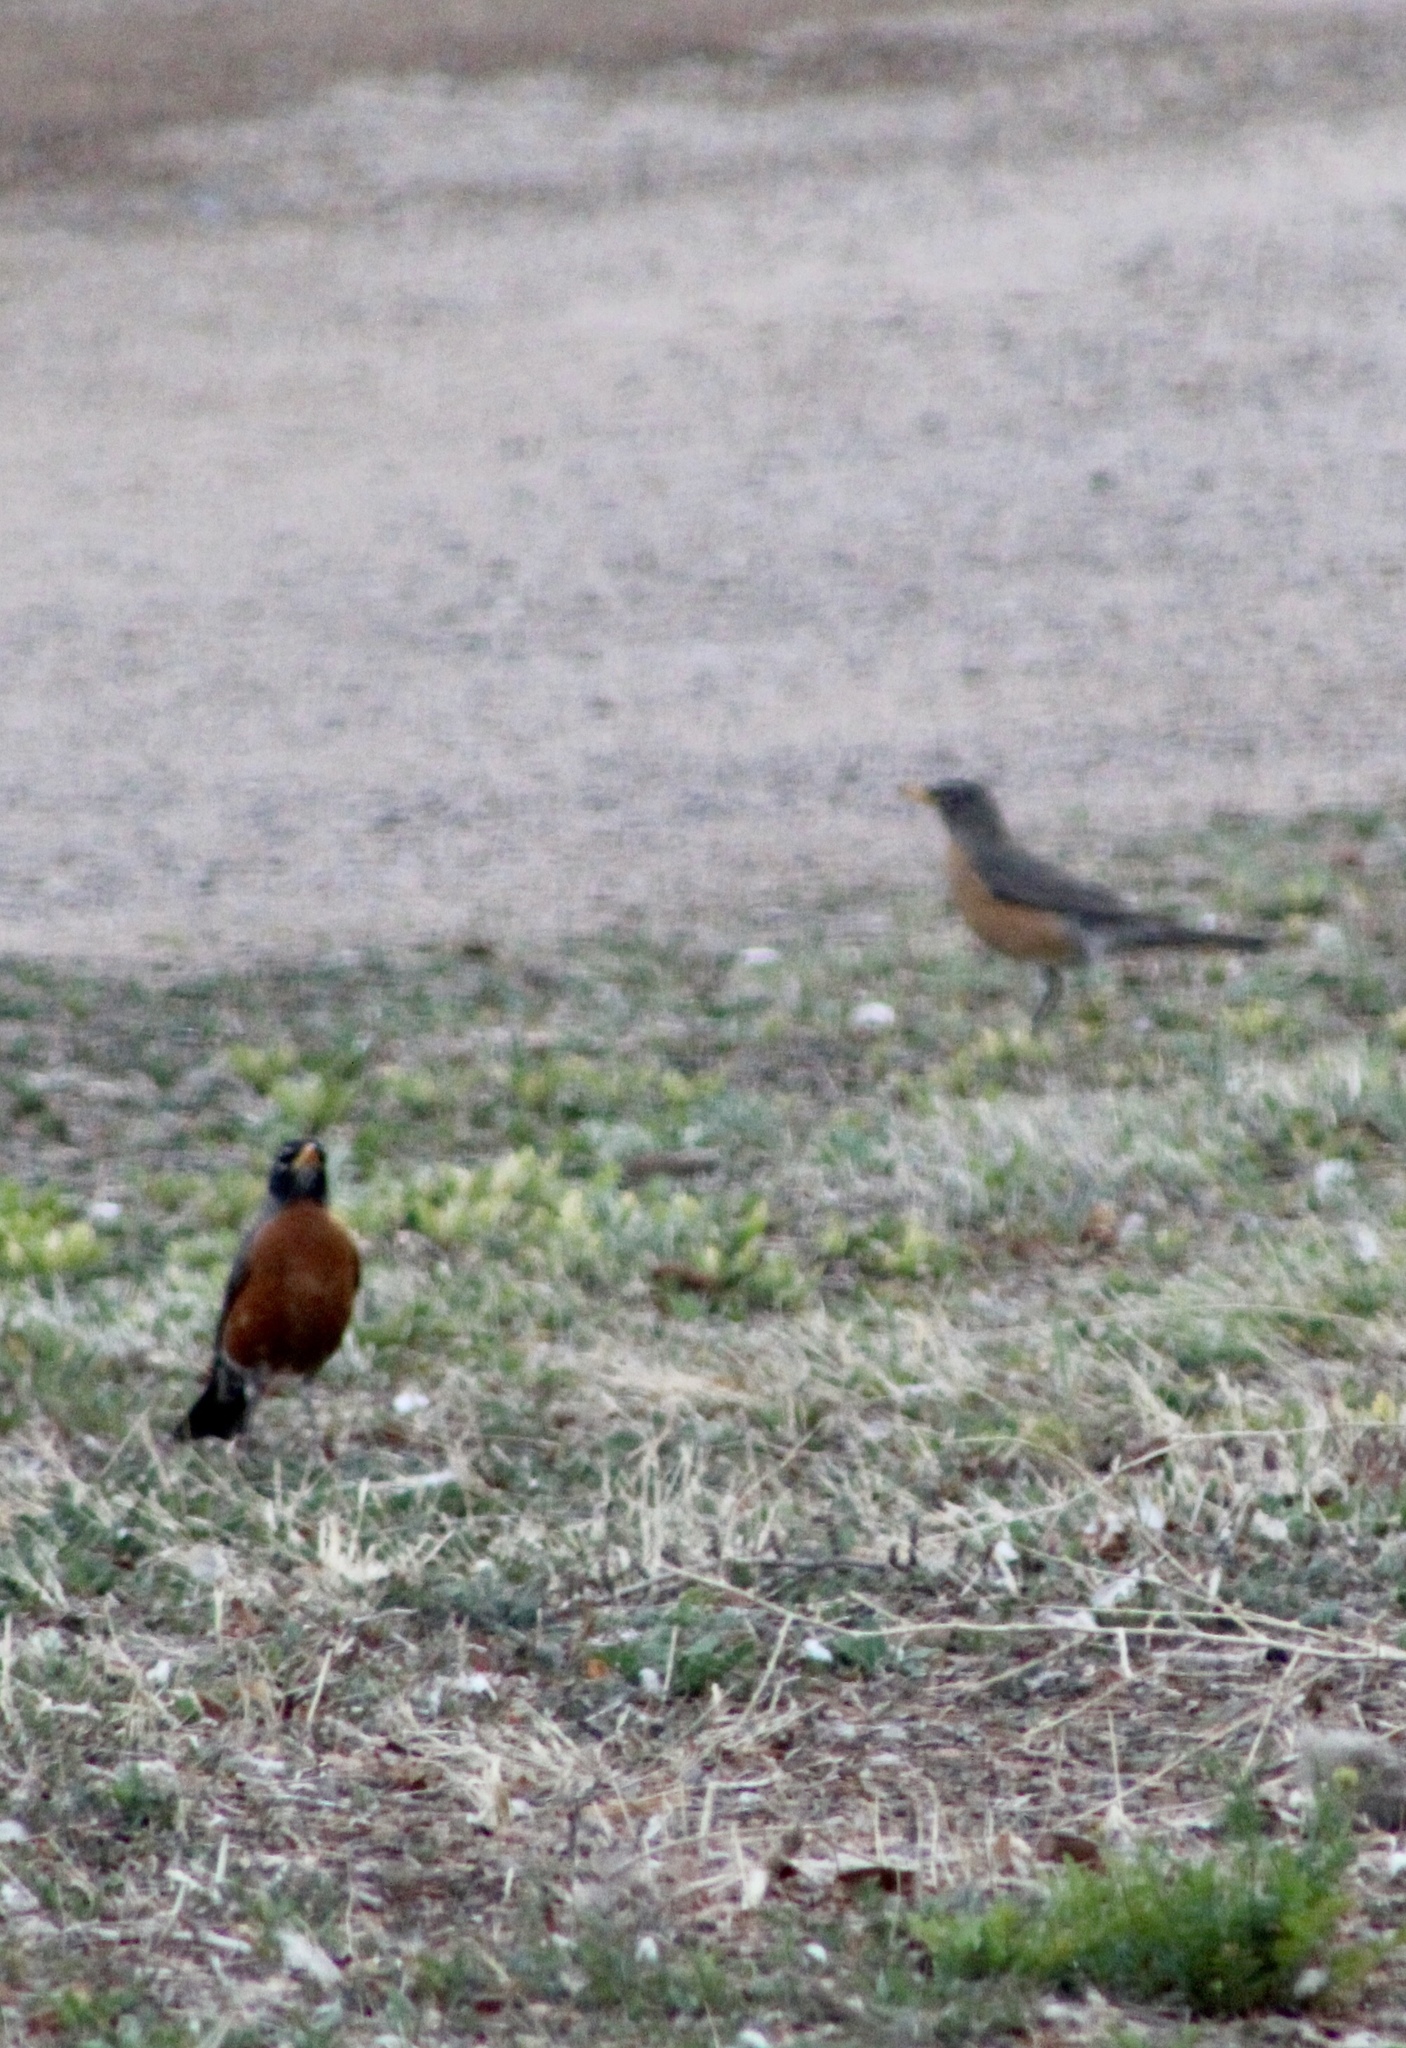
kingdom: Animalia
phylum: Chordata
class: Aves
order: Passeriformes
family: Turdidae
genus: Turdus
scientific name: Turdus migratorius
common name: American robin
